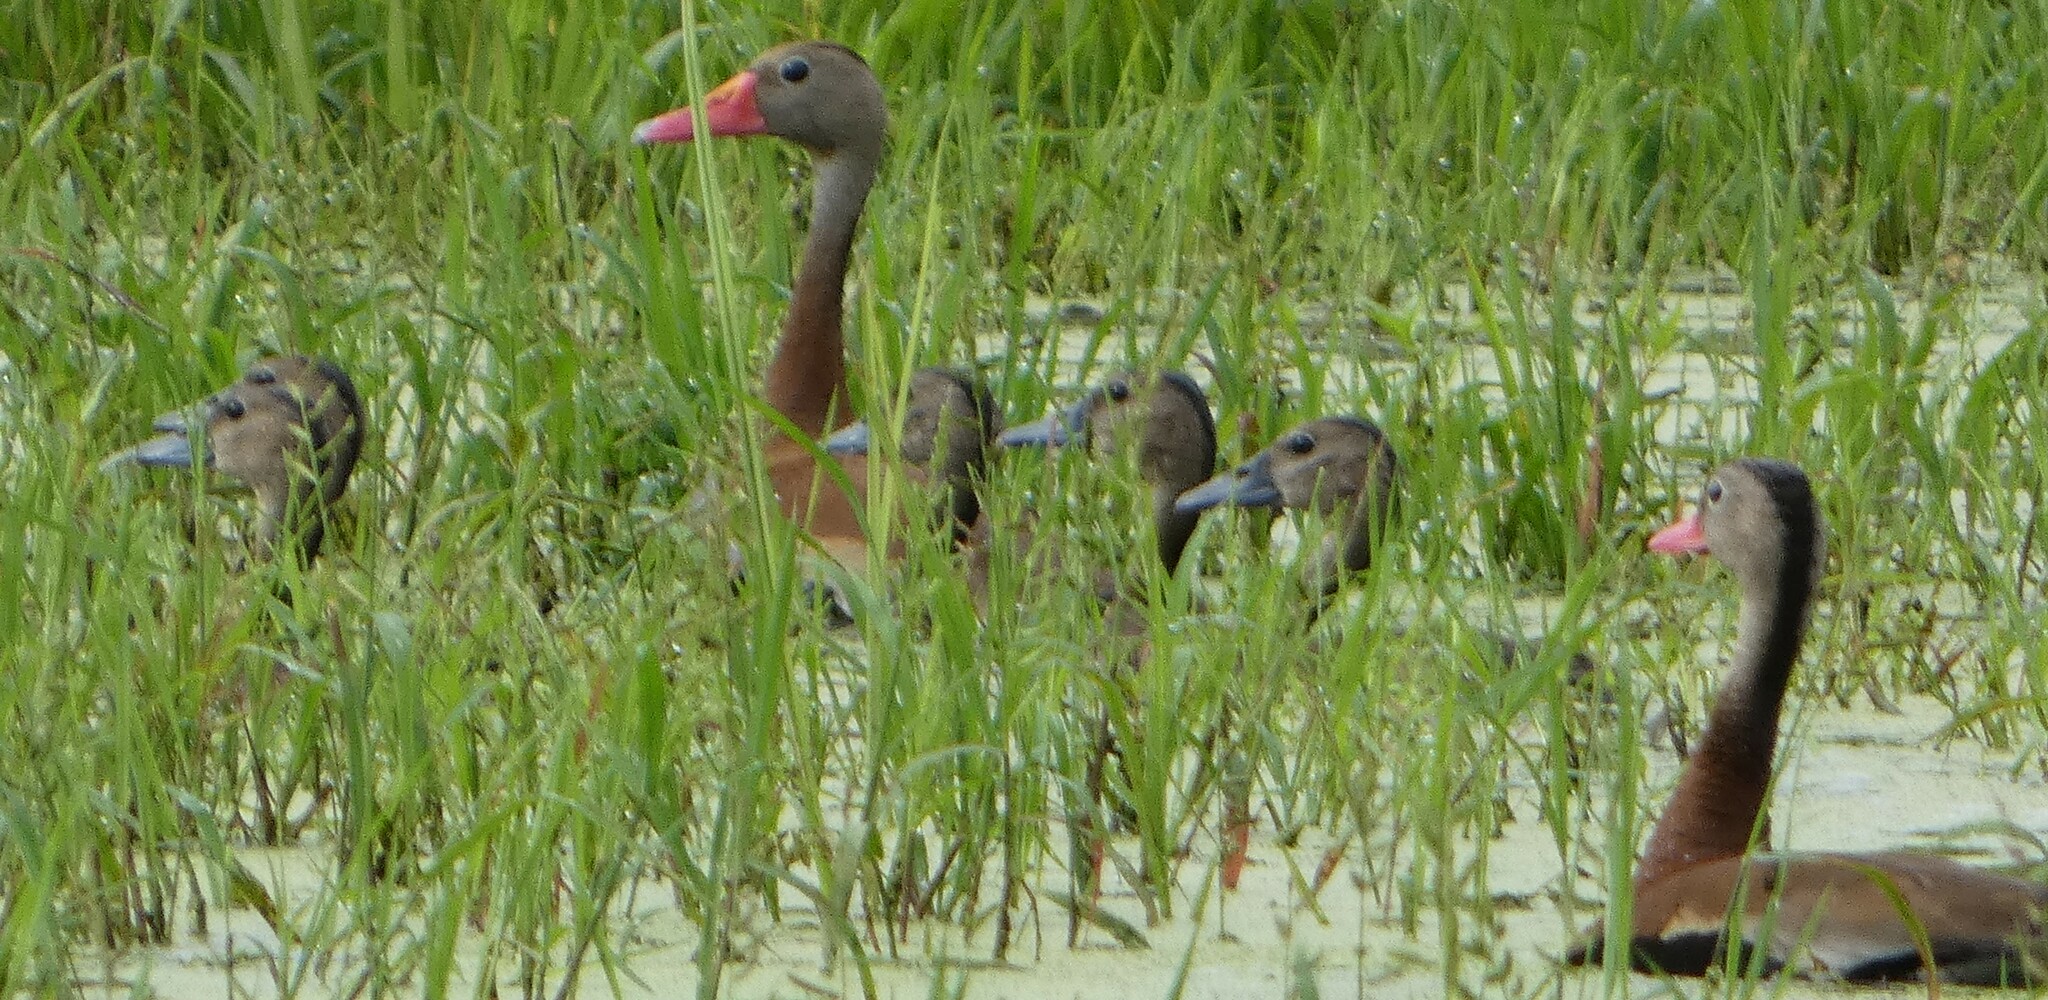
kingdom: Animalia
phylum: Chordata
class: Aves
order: Anseriformes
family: Anatidae
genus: Dendrocygna
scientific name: Dendrocygna autumnalis
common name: Black-bellied whistling duck
